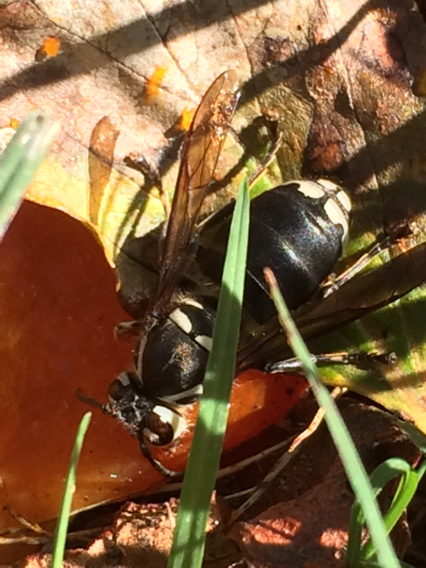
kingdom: Animalia
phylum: Arthropoda
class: Insecta
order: Hymenoptera
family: Vespidae
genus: Dolichovespula
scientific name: Dolichovespula maculata
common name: Bald-faced hornet
